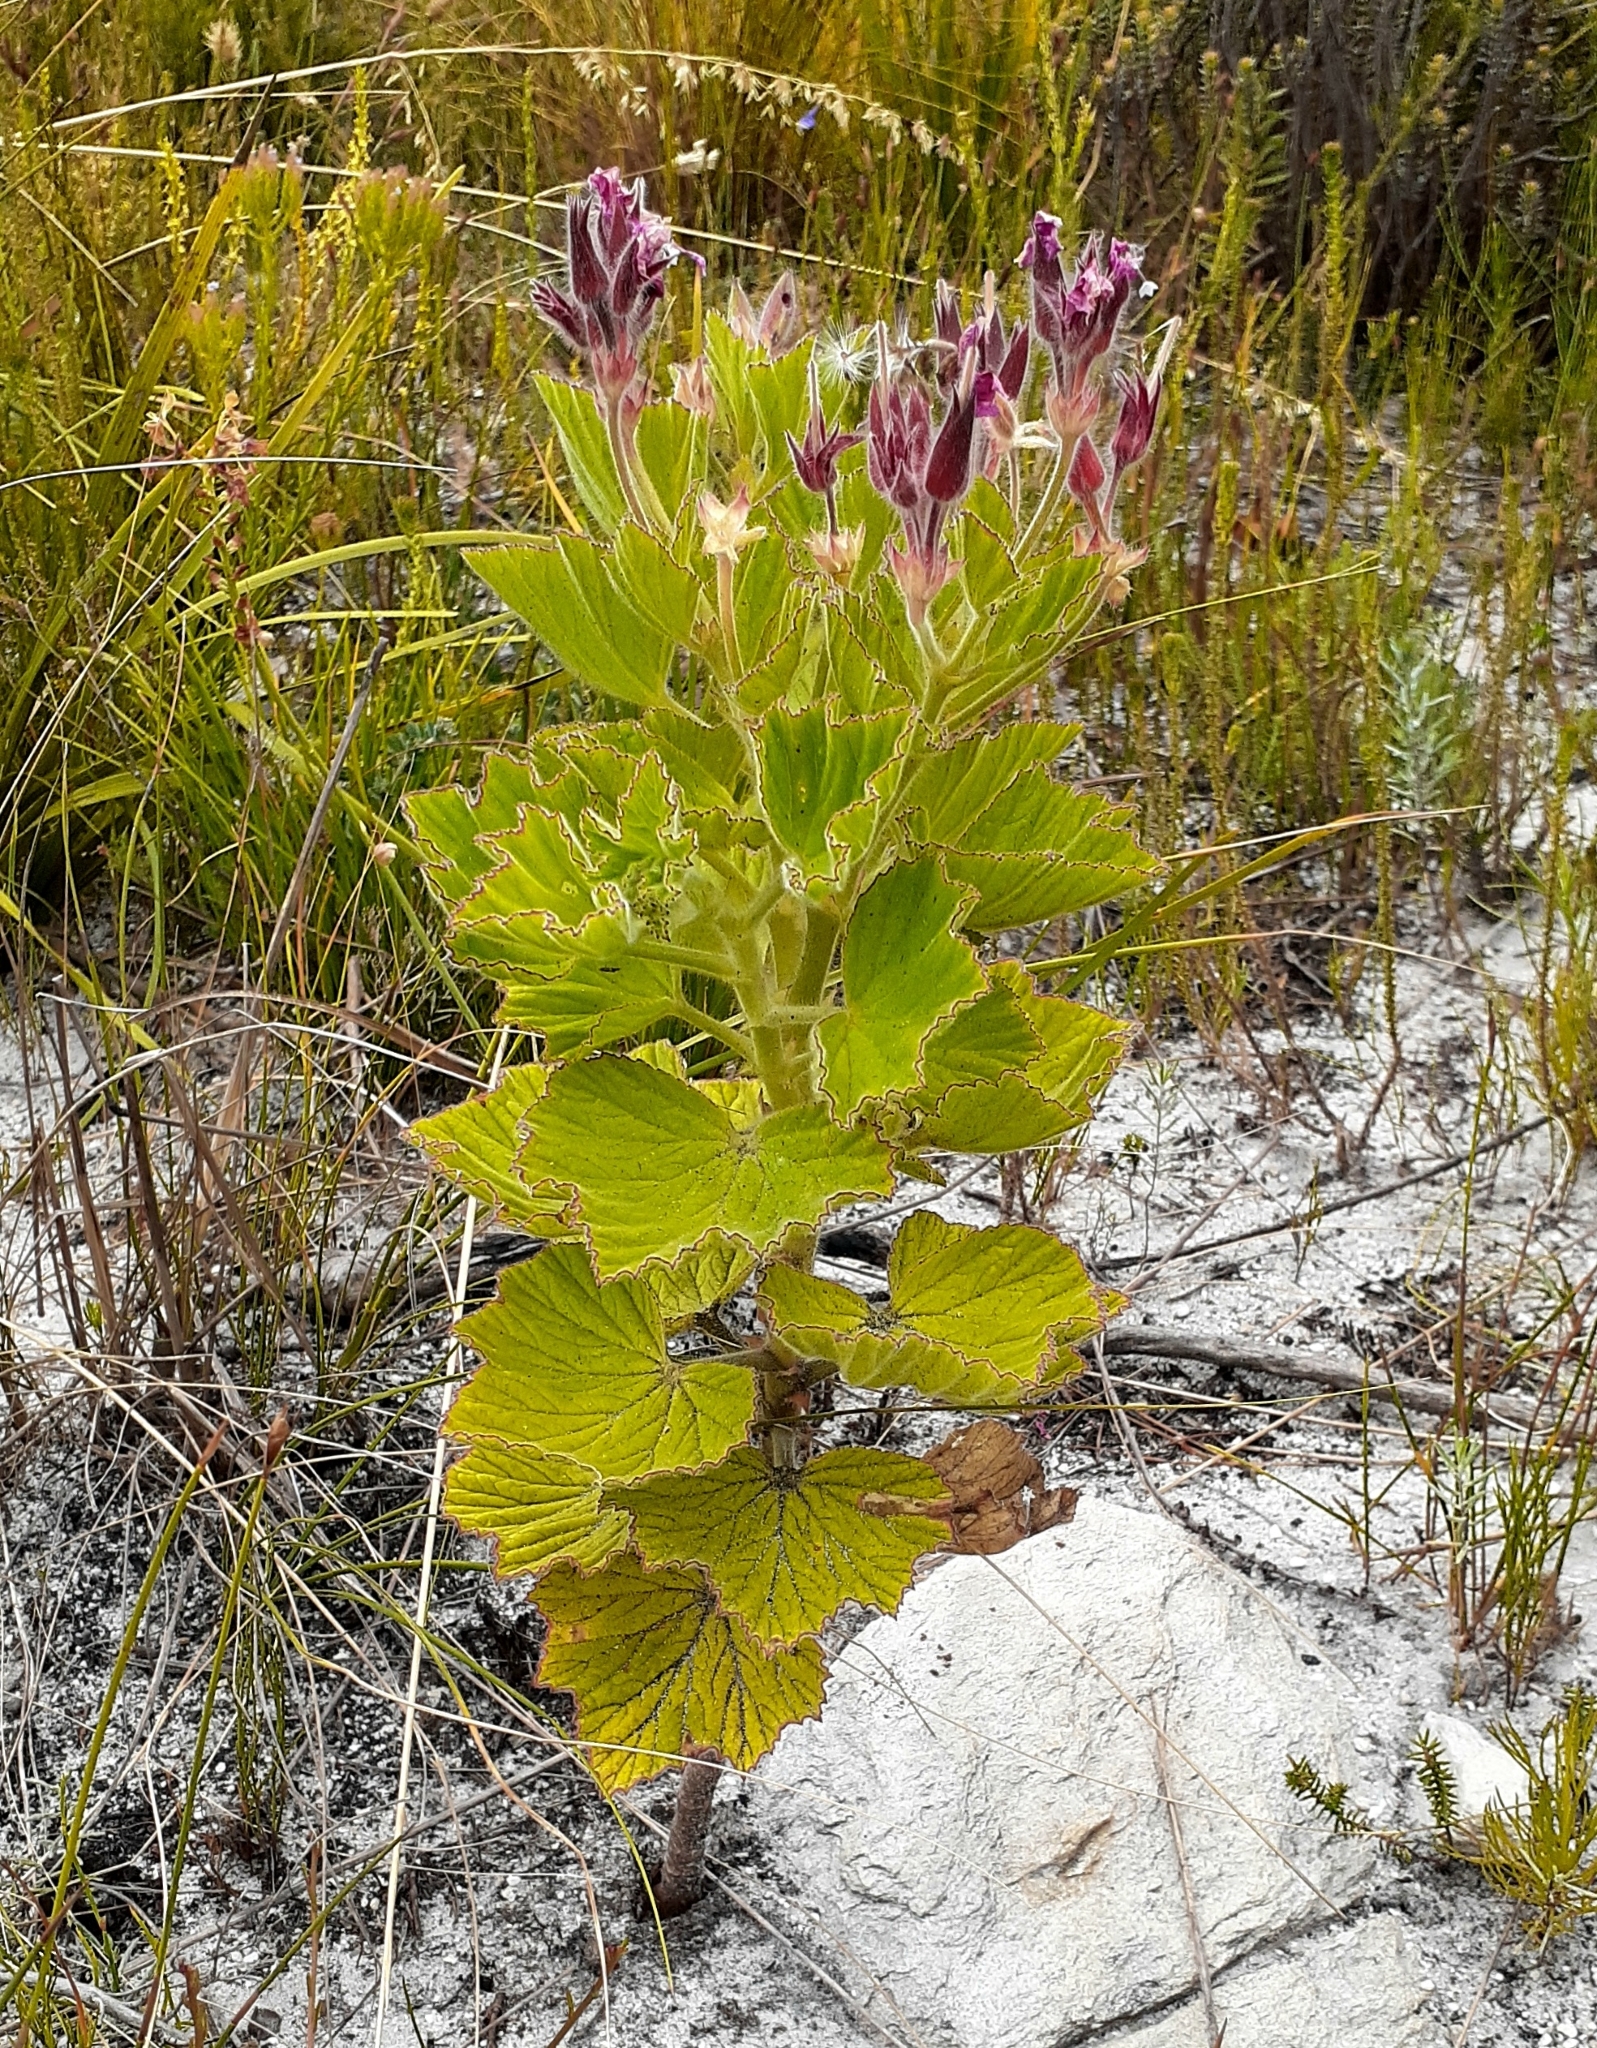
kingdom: Plantae
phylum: Tracheophyta
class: Magnoliopsida
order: Geraniales
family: Geraniaceae
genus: Pelargonium
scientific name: Pelargonium cucullatum
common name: Tree pelargonium
